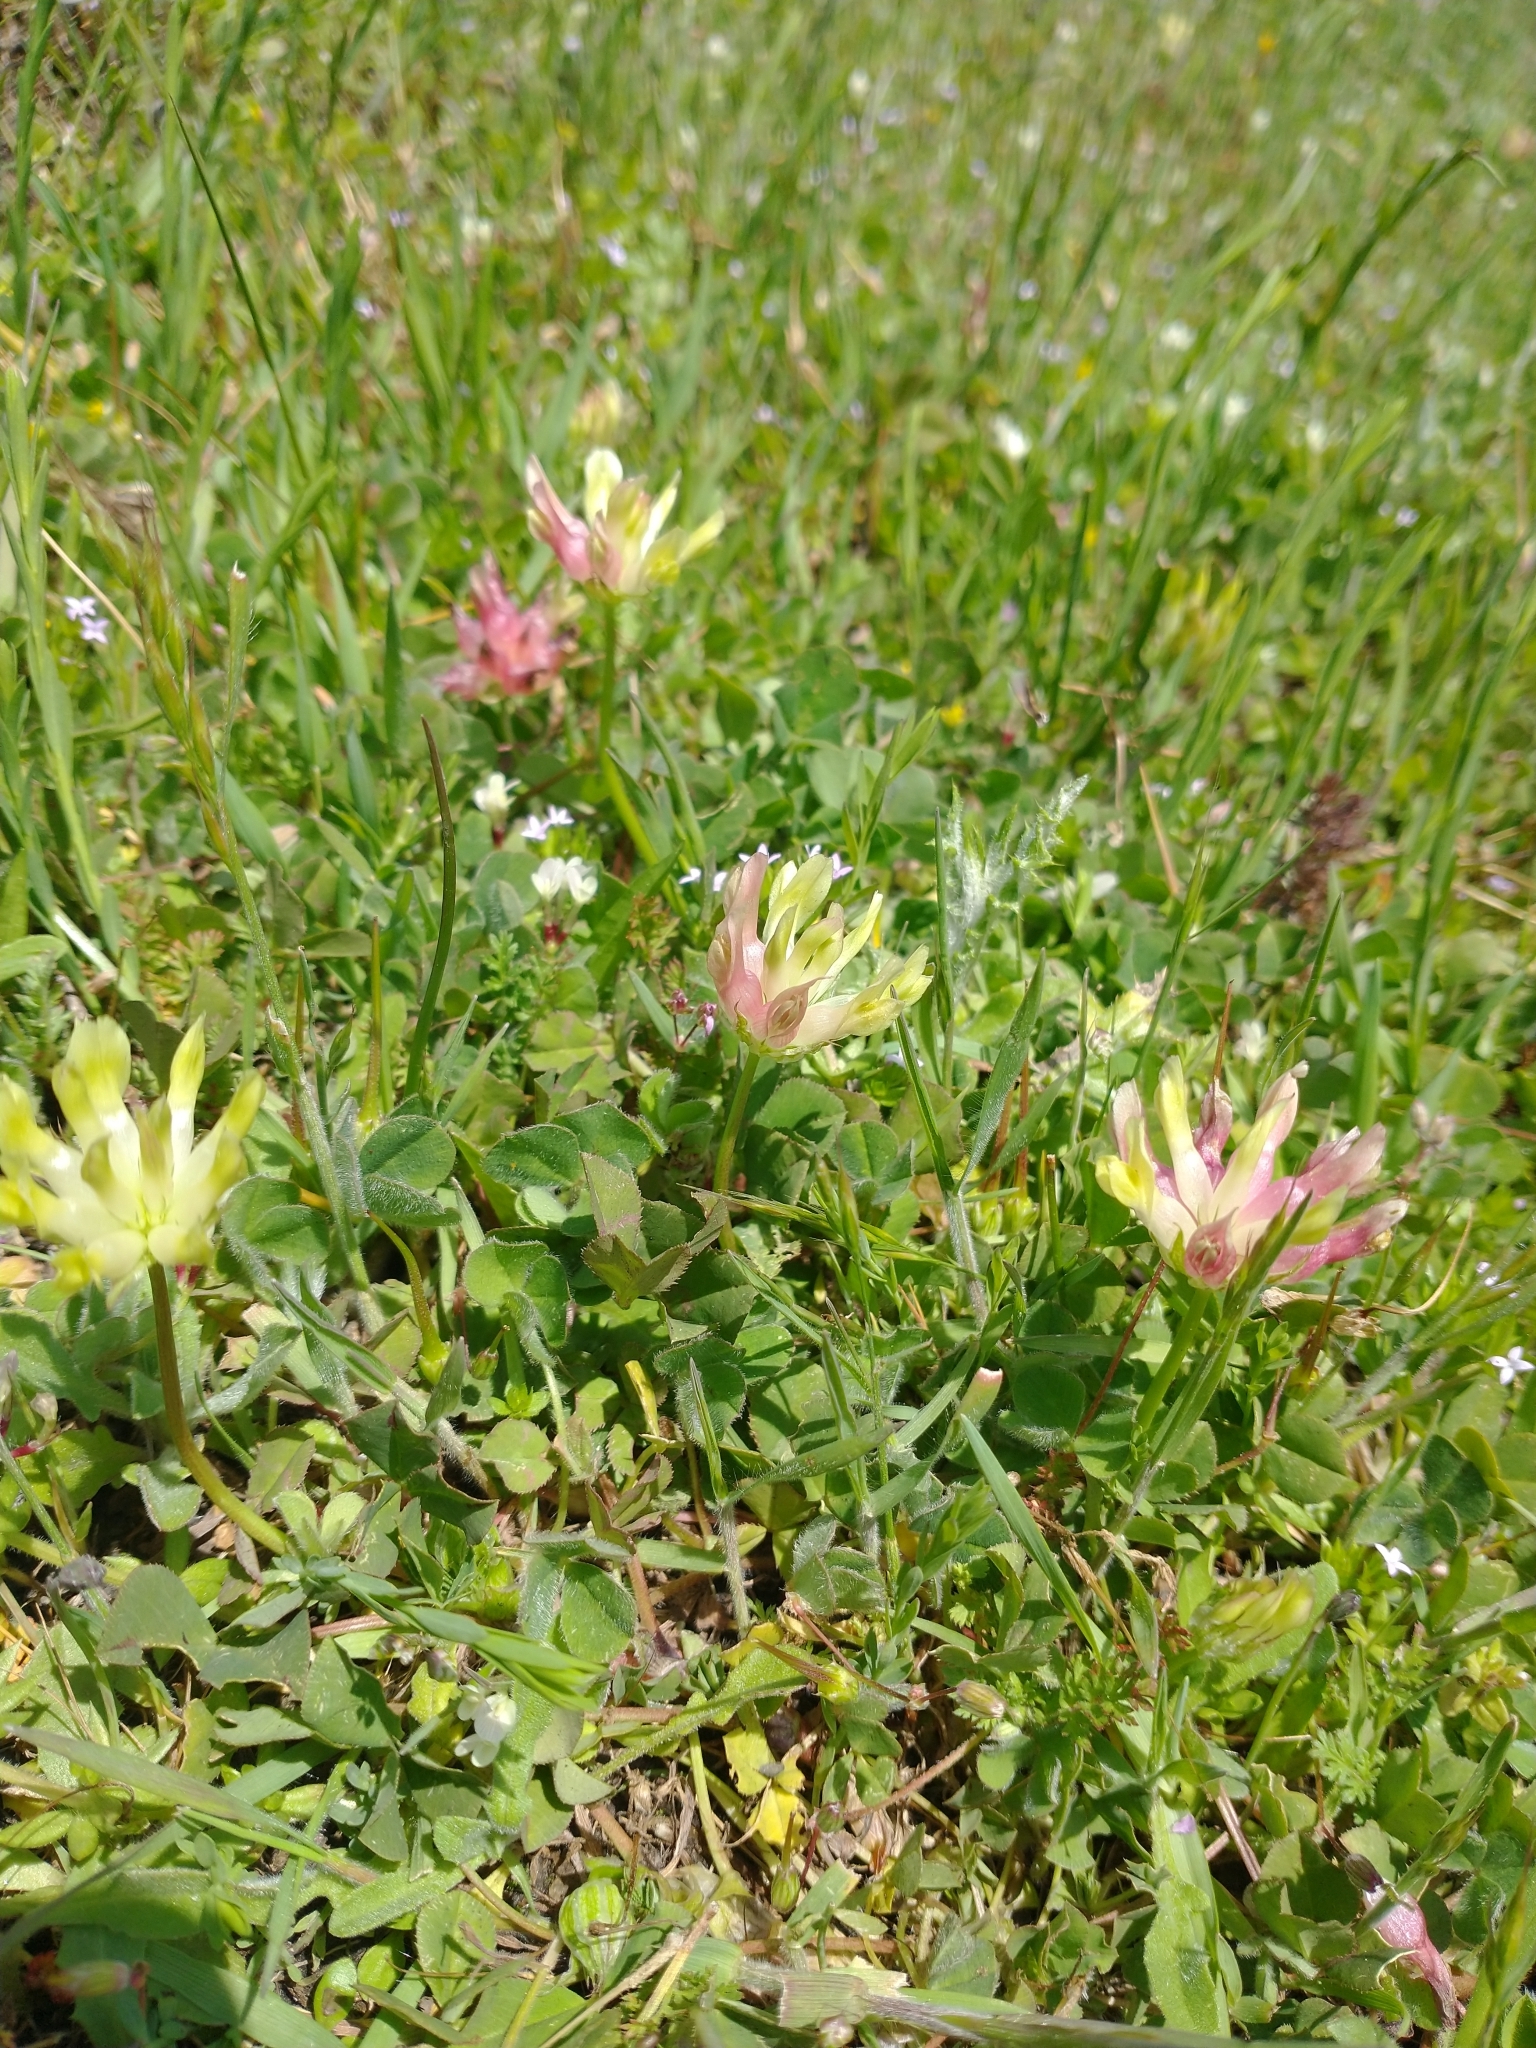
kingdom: Plantae
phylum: Tracheophyta
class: Magnoliopsida
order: Fabales
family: Fabaceae
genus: Trifolium
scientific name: Trifolium fucatum
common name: Puff clover
